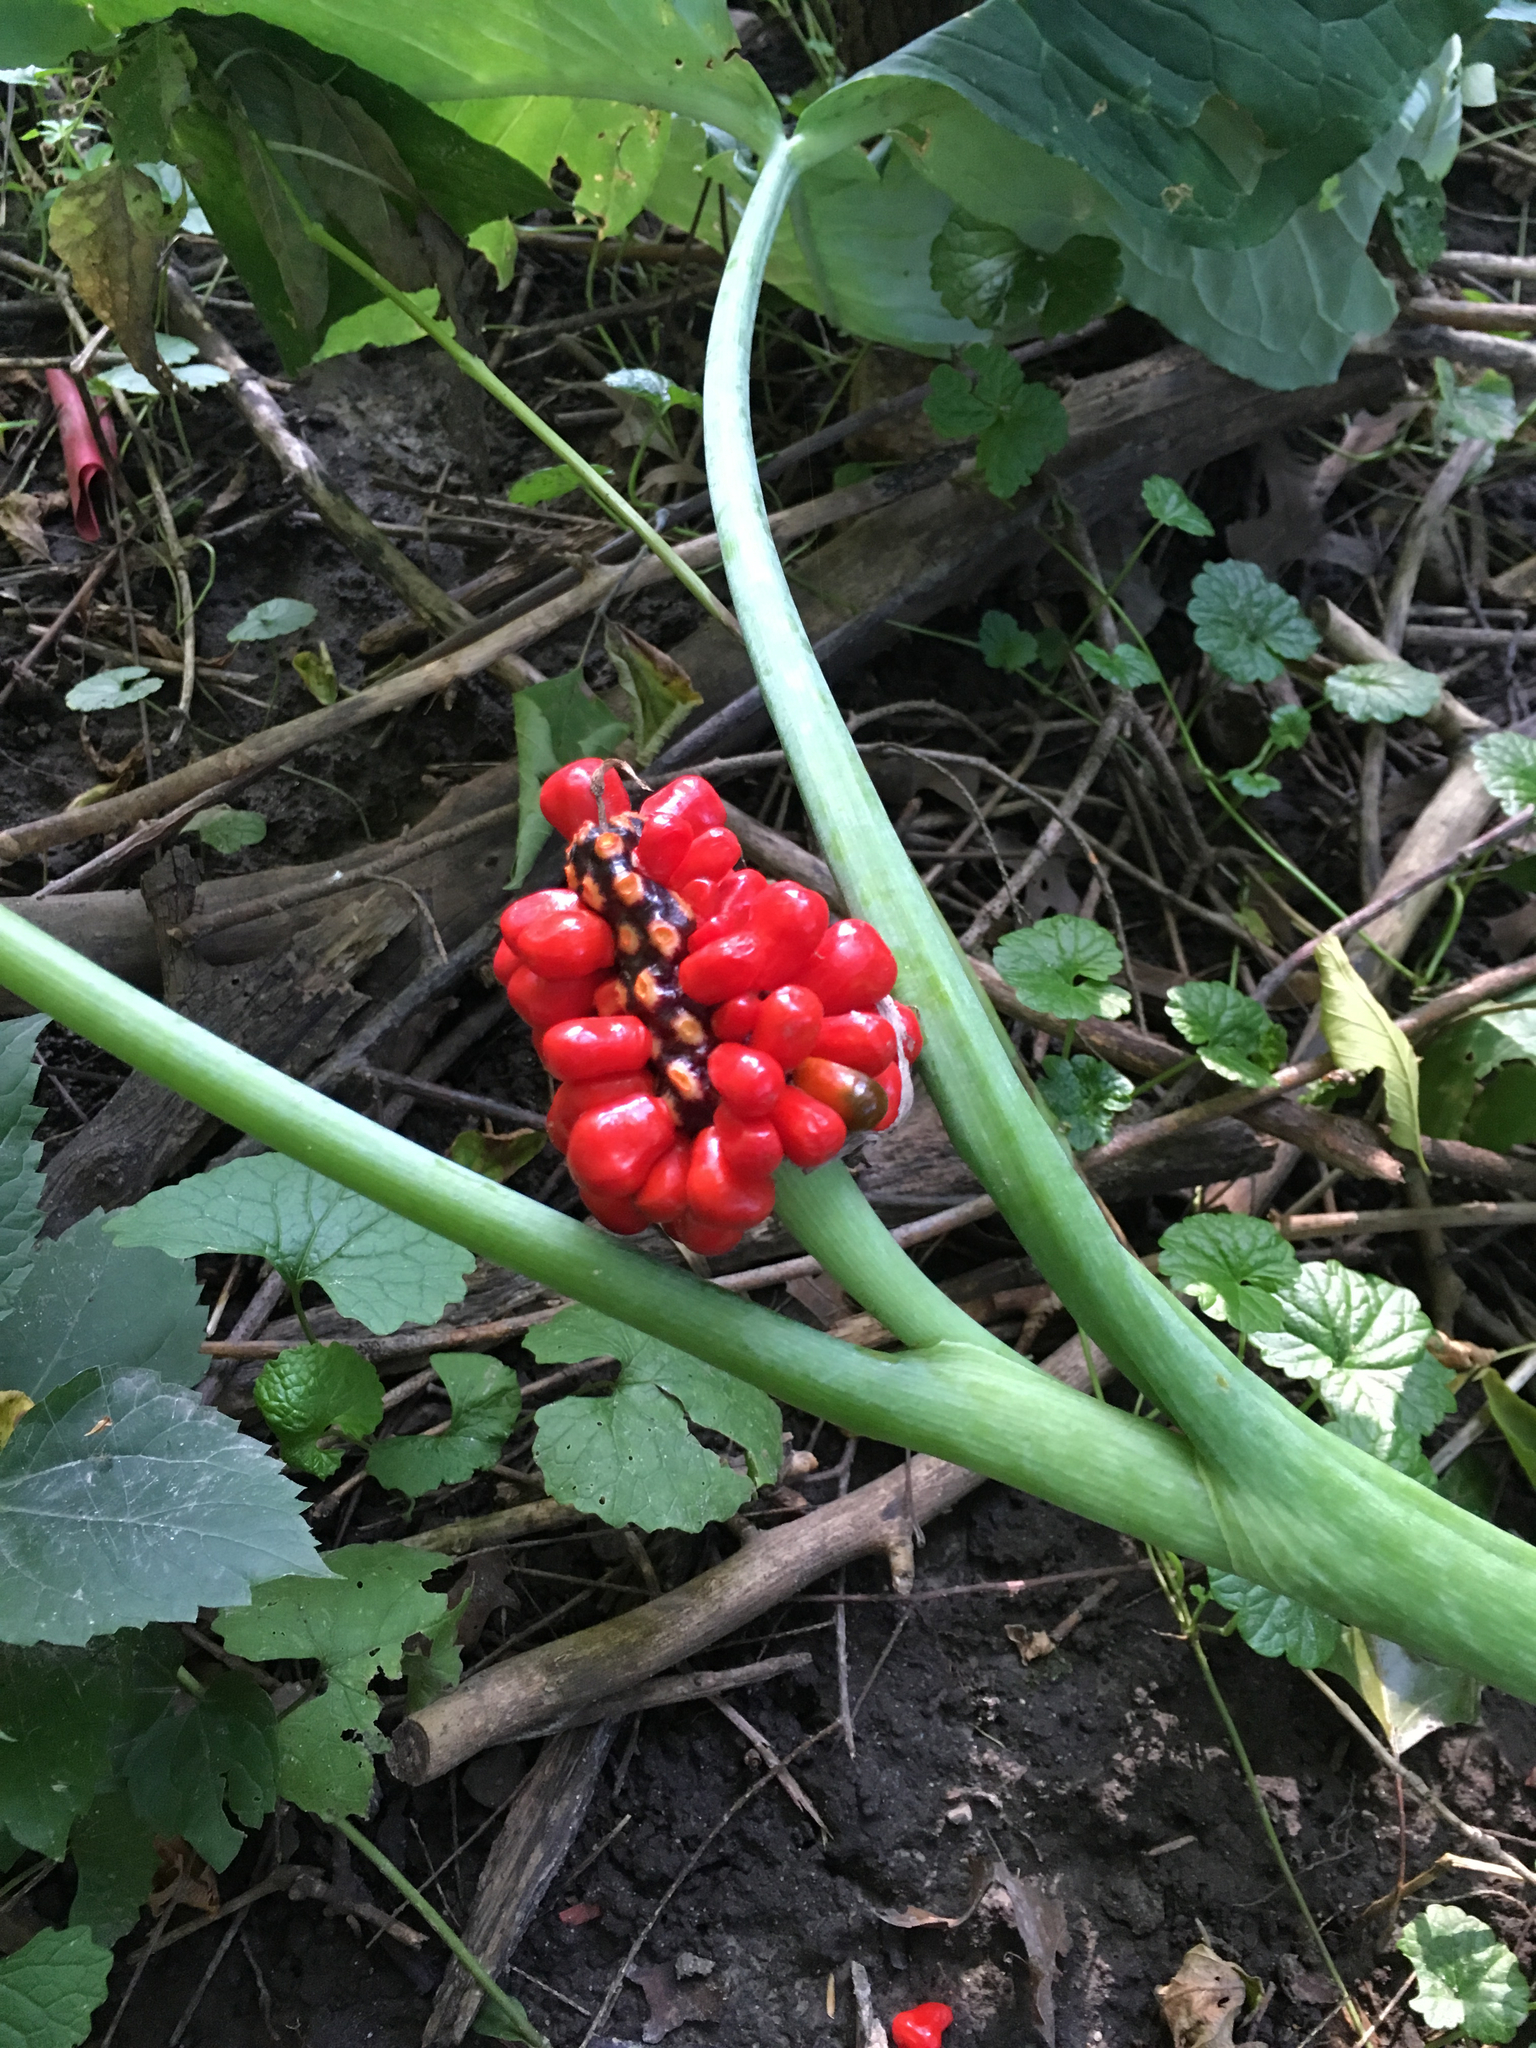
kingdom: Plantae
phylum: Tracheophyta
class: Liliopsida
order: Alismatales
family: Araceae
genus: Arisaema
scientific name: Arisaema triphyllum
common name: Jack-in-the-pulpit
